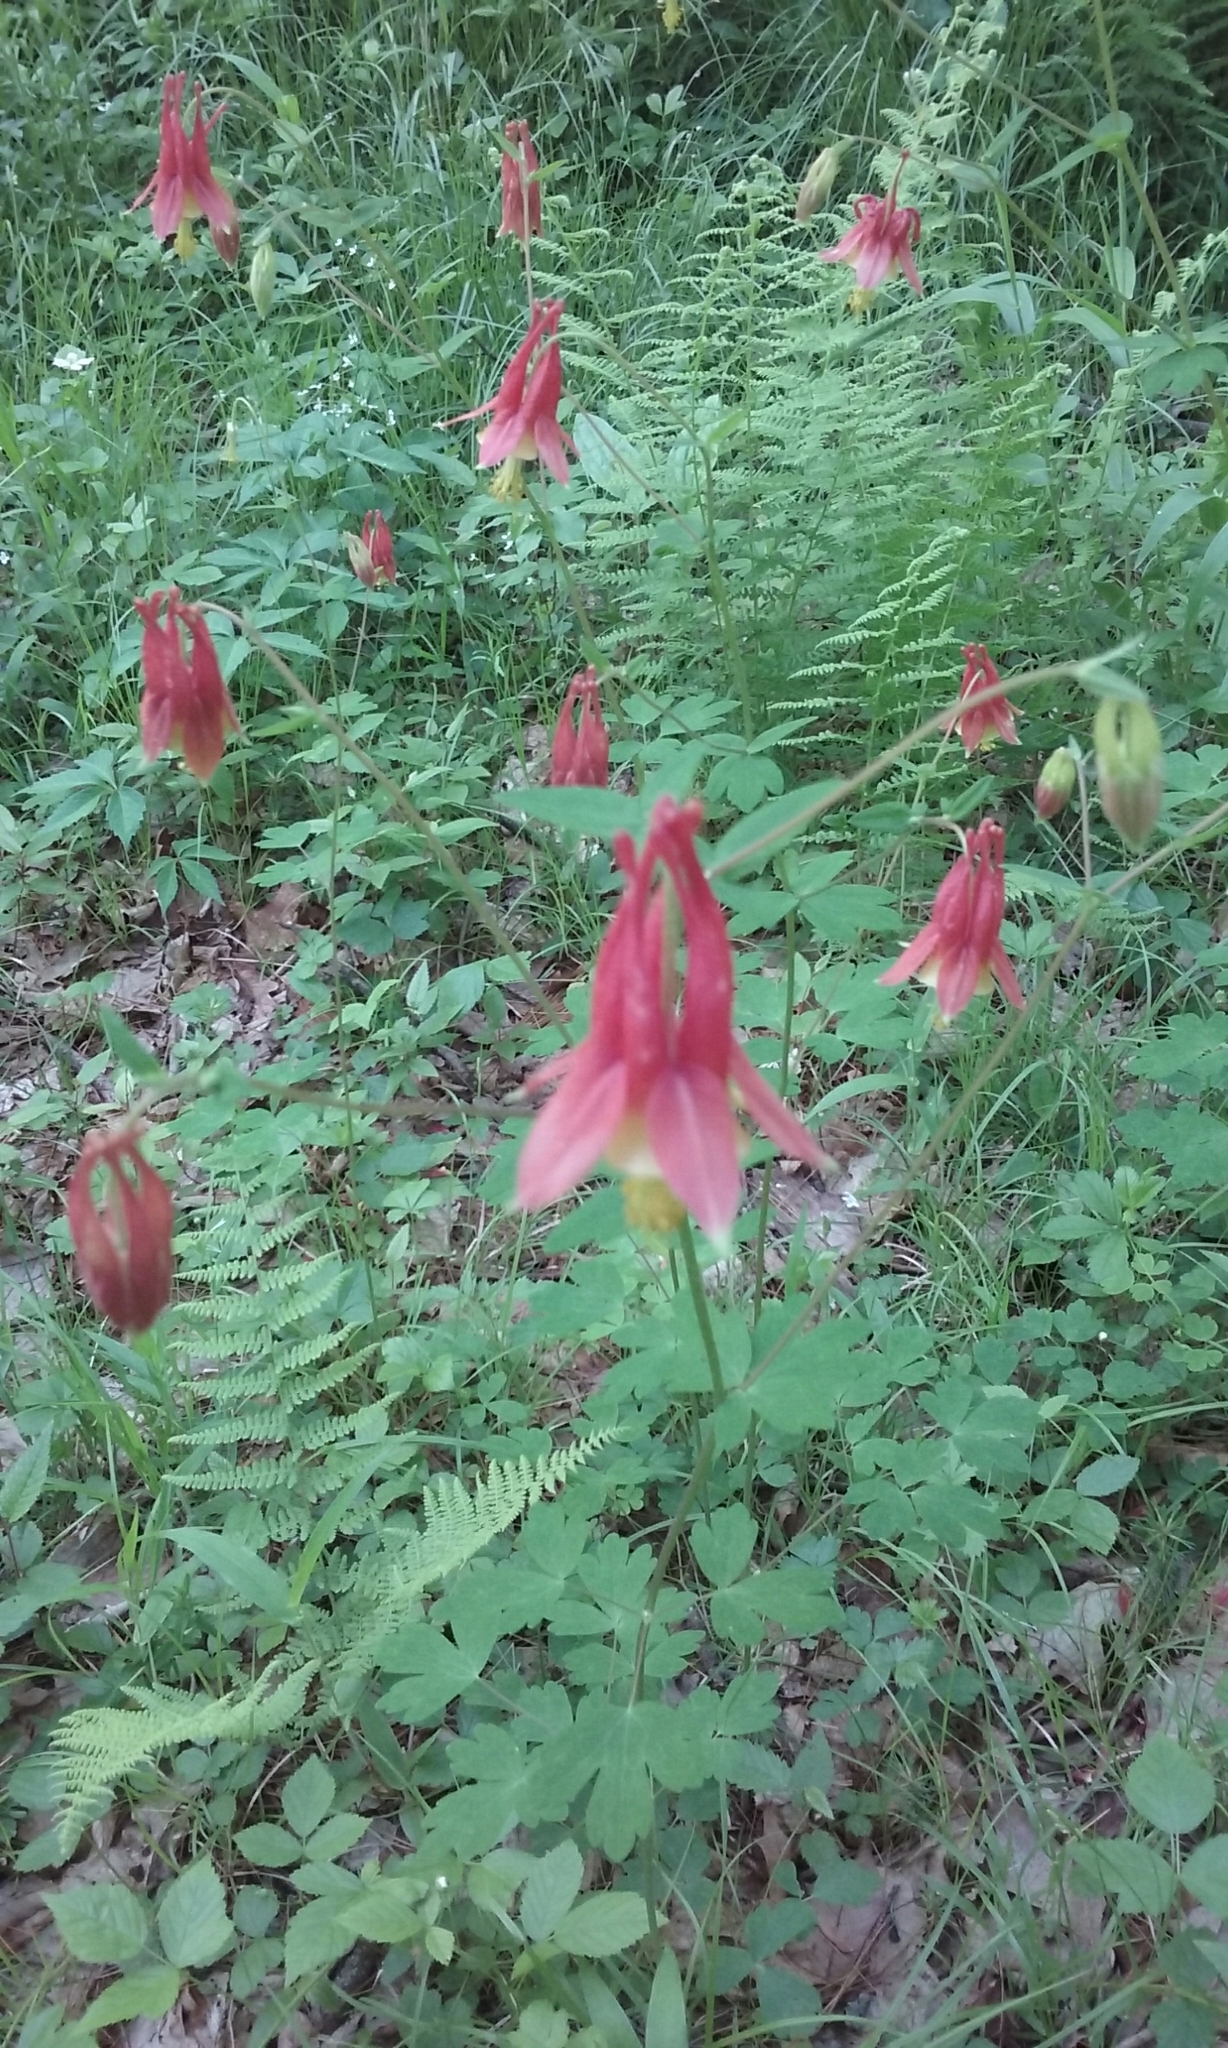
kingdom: Plantae
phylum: Tracheophyta
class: Magnoliopsida
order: Ranunculales
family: Ranunculaceae
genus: Aquilegia
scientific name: Aquilegia canadensis
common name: American columbine
